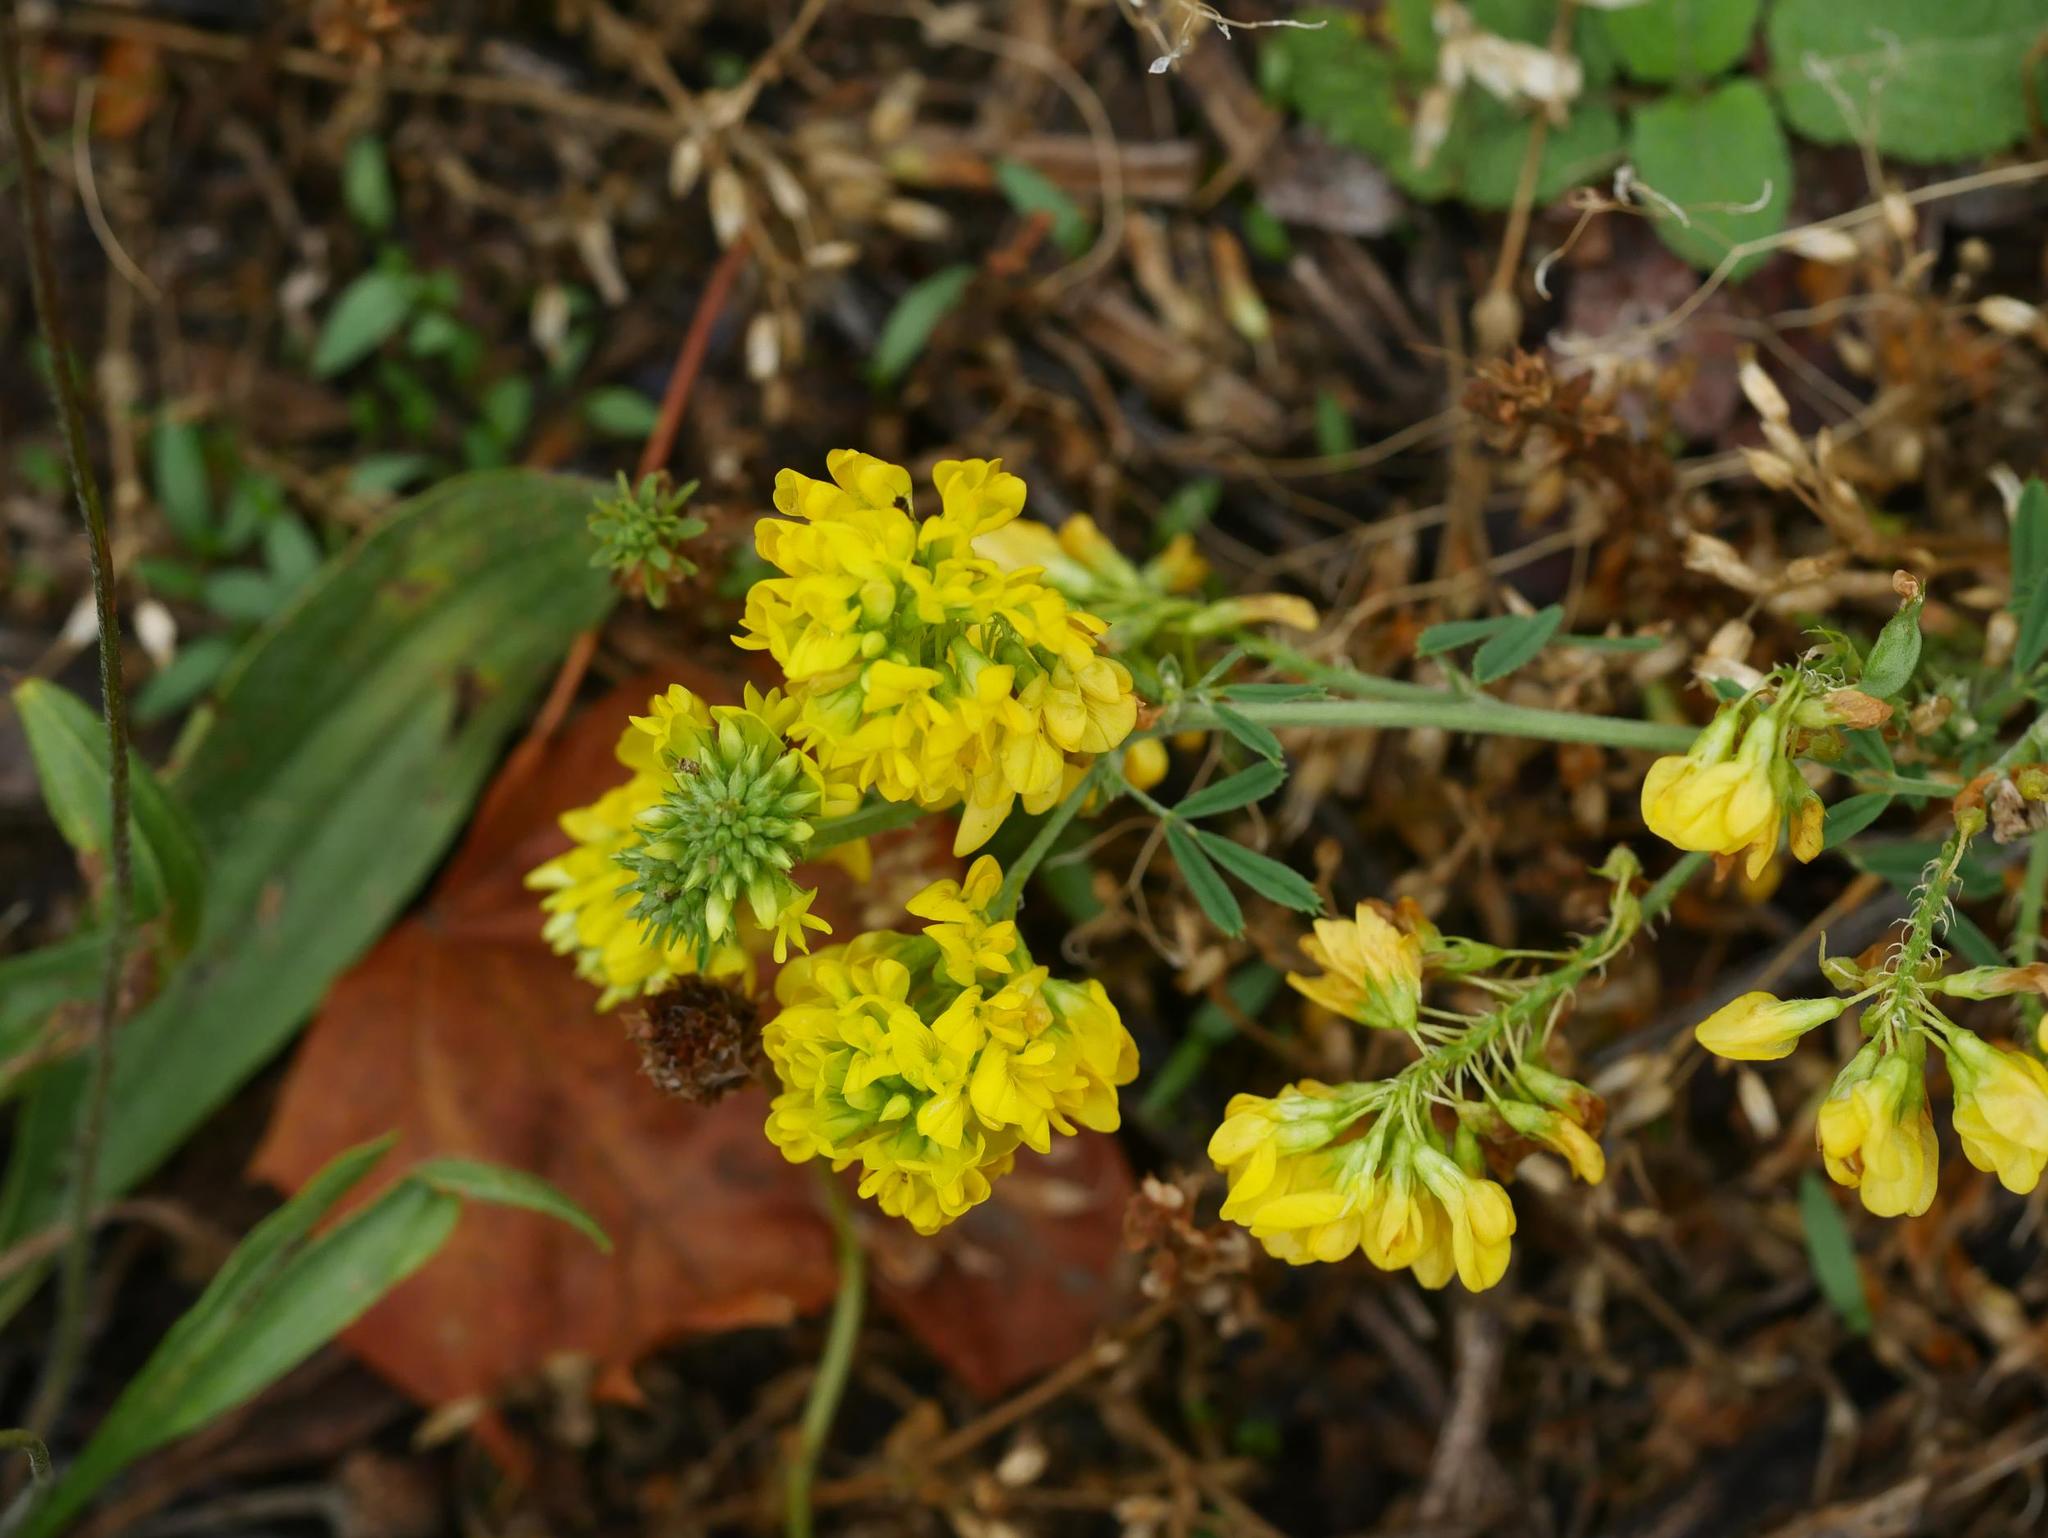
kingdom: Plantae
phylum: Tracheophyta
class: Magnoliopsida
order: Fabales
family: Fabaceae
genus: Medicago
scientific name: Medicago falcata
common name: Sickle medick
